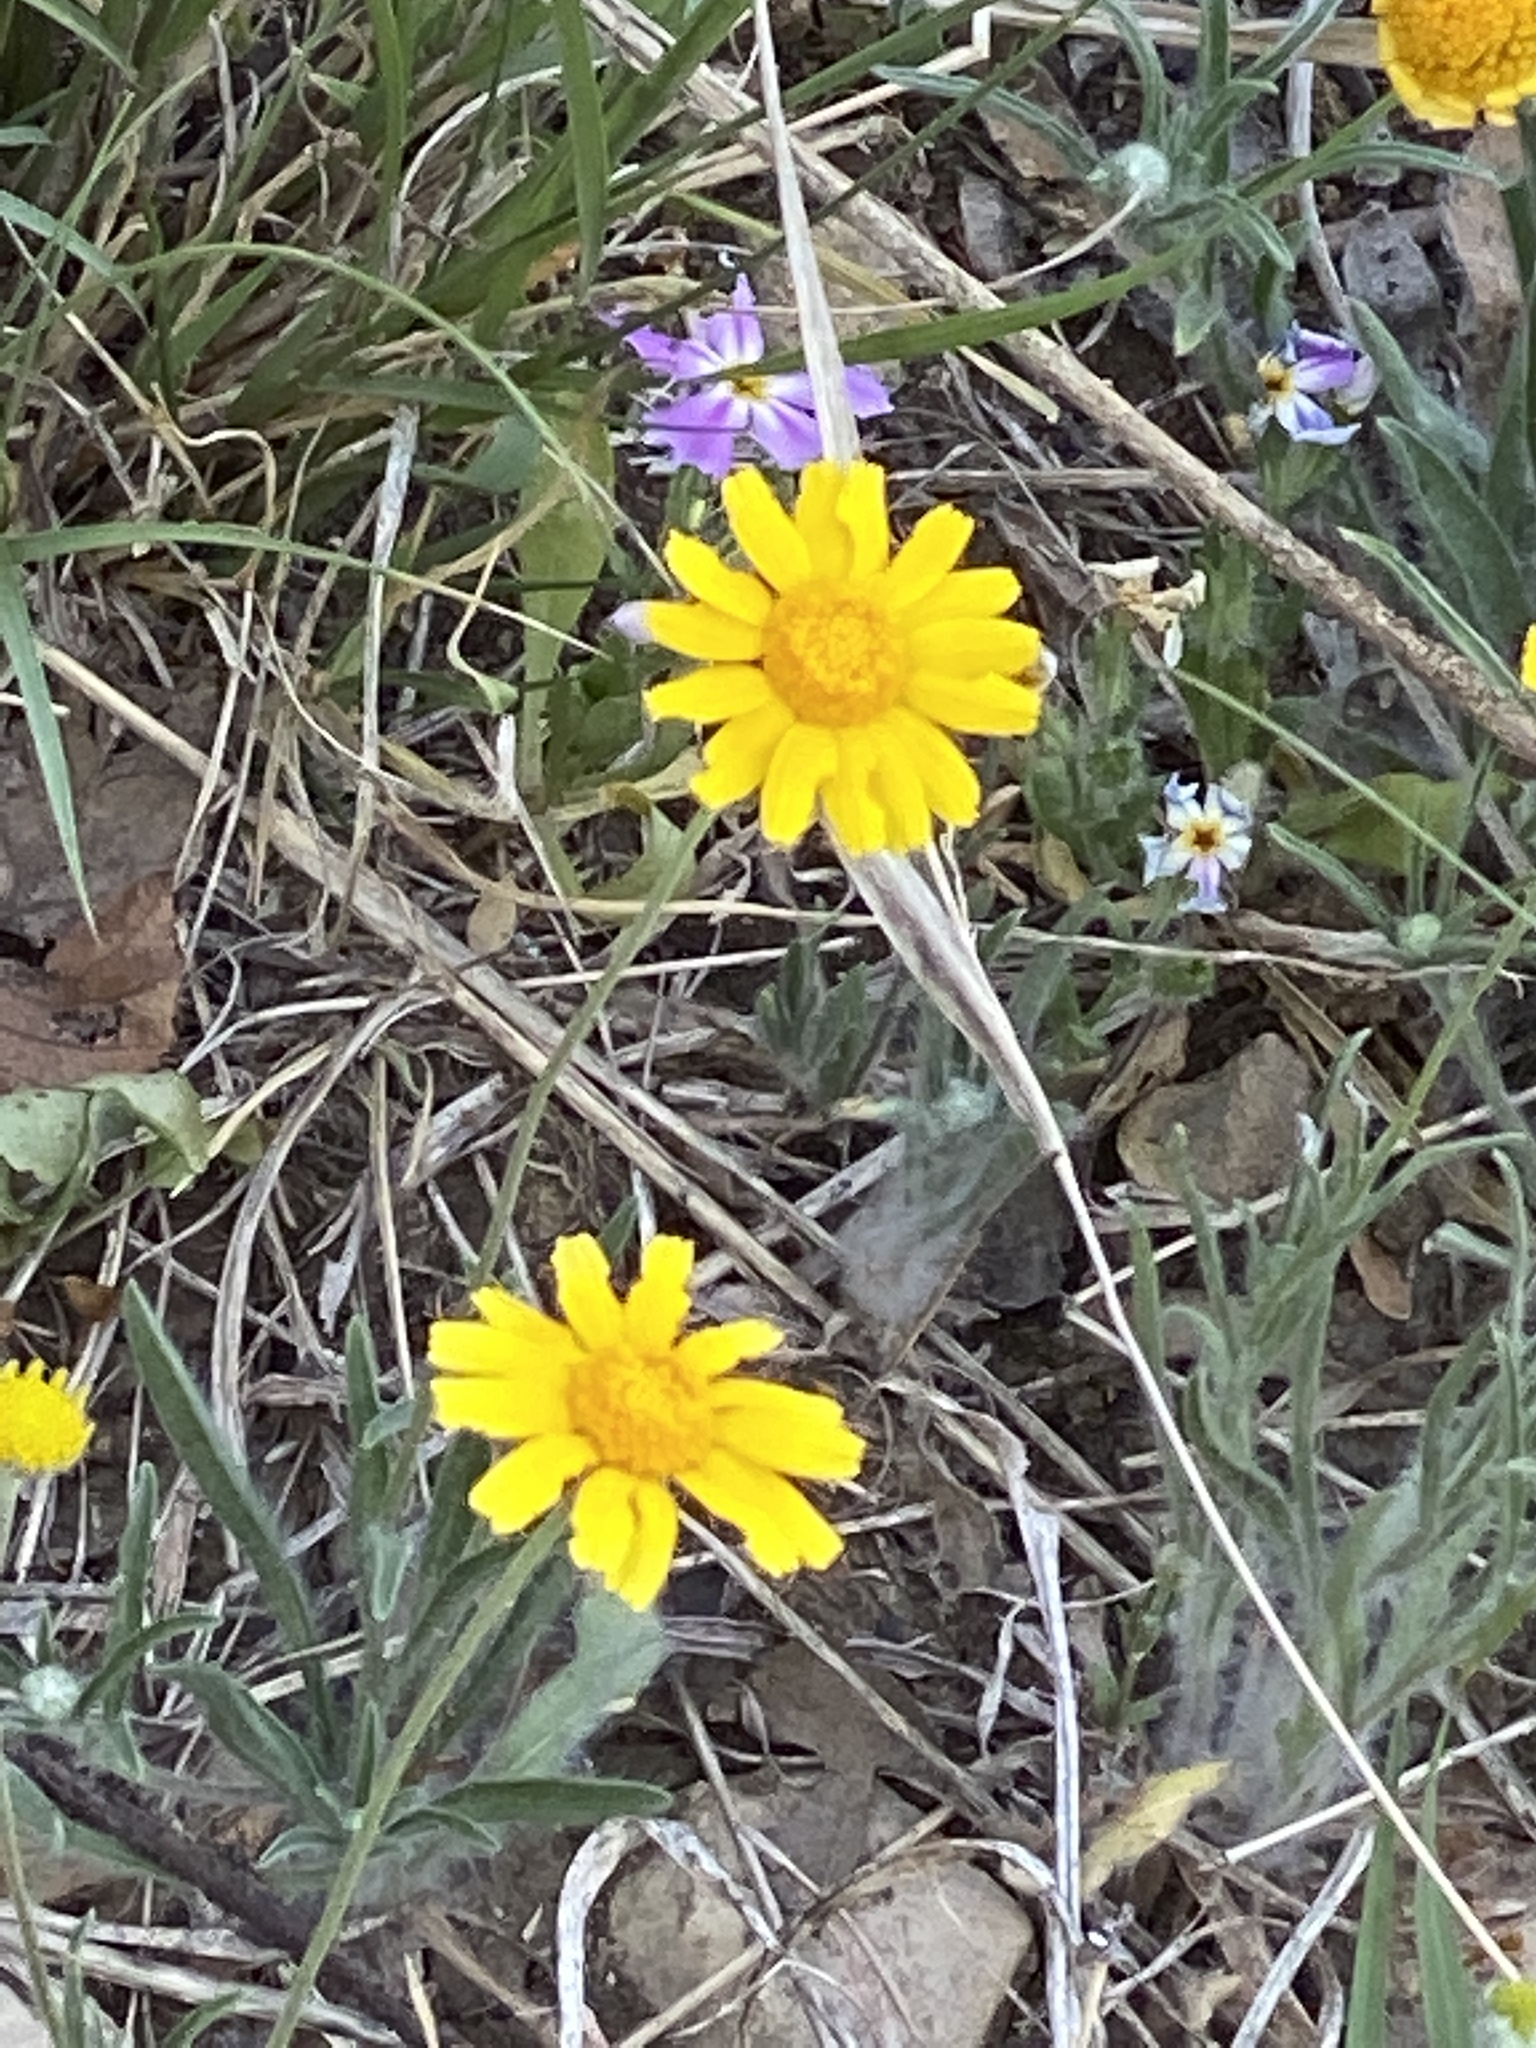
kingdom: Plantae
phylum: Tracheophyta
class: Magnoliopsida
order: Asterales
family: Asteraceae
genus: Tetraneuris
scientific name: Tetraneuris linearifolia
